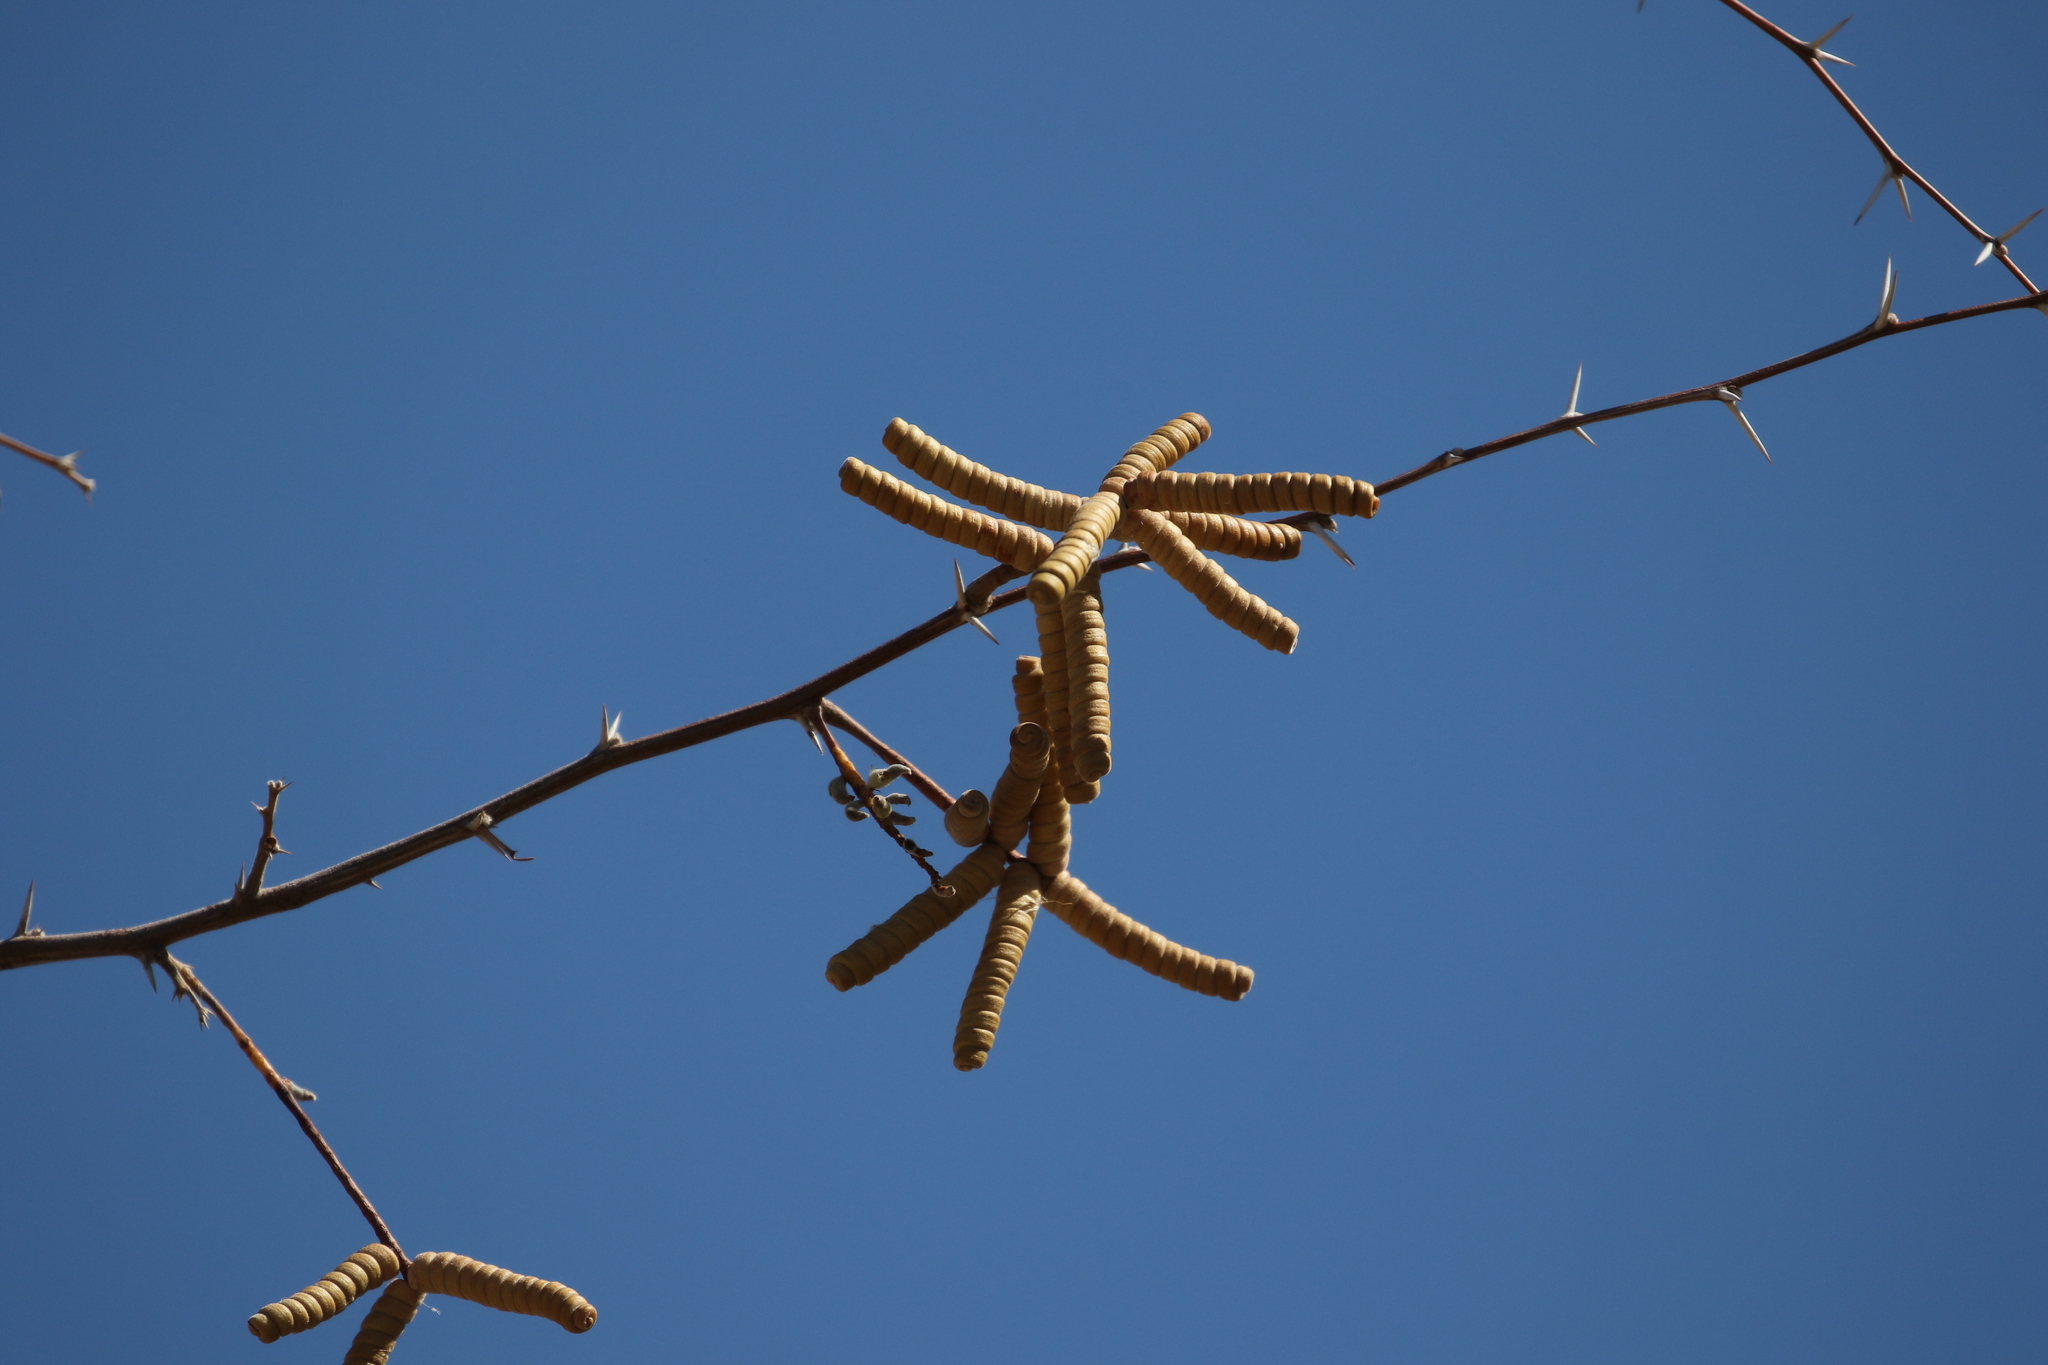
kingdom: Plantae
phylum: Tracheophyta
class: Magnoliopsida
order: Fabales
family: Fabaceae
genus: Prosopis
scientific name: Prosopis pubescens
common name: Screw-bean
